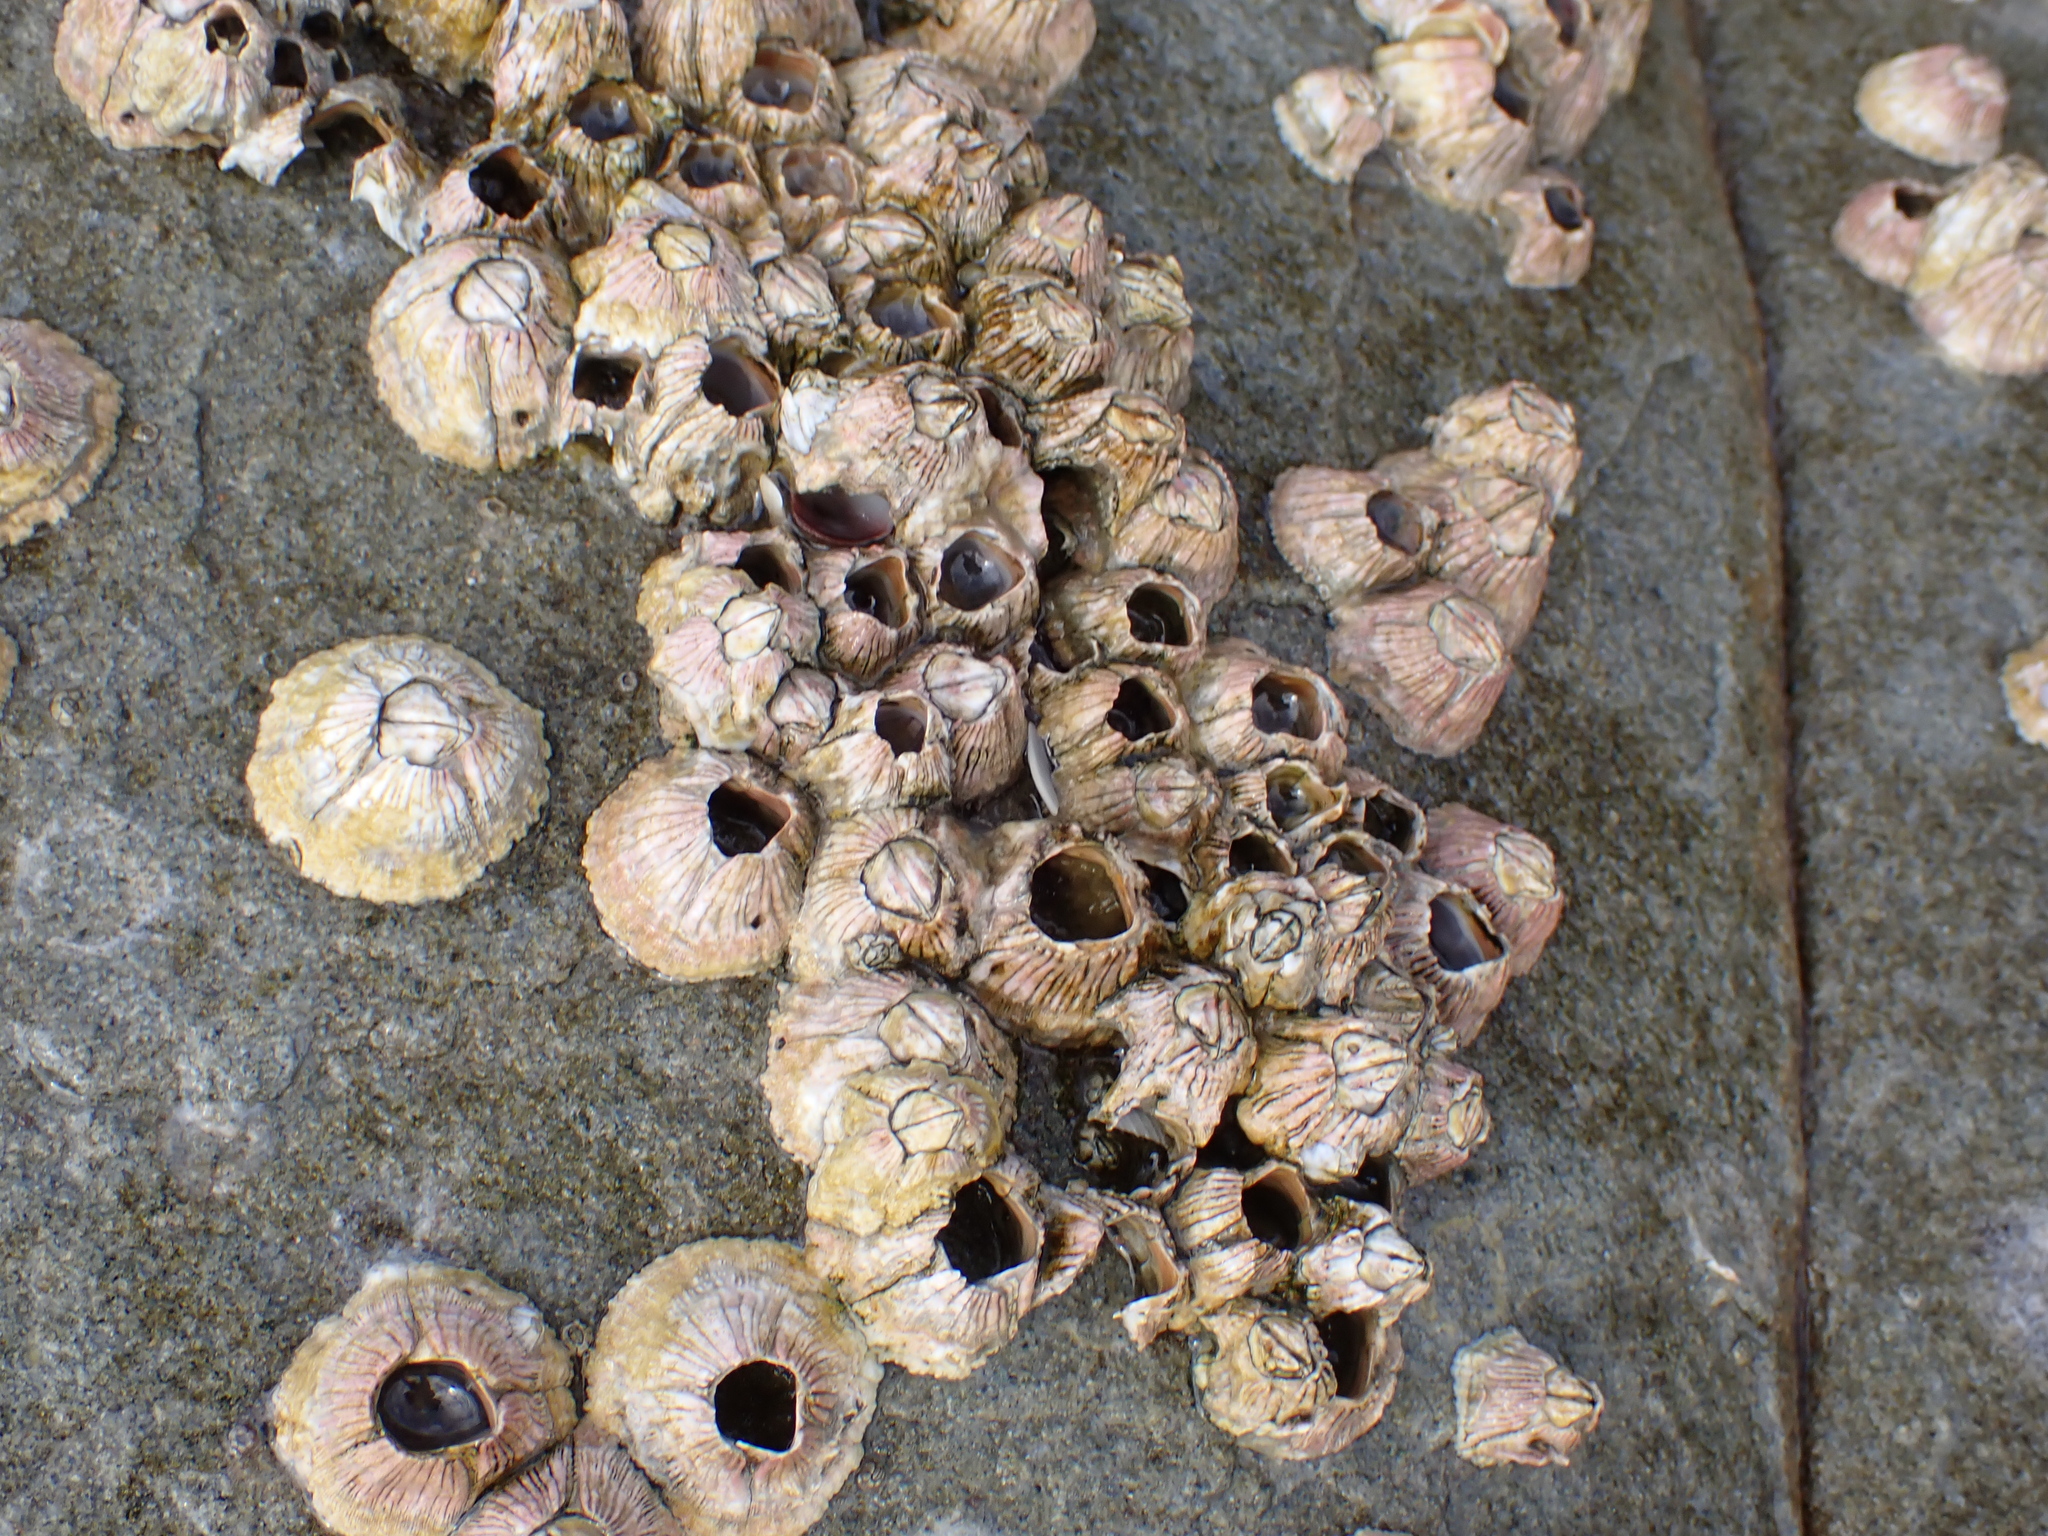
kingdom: Animalia
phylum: Arthropoda
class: Maxillopoda
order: Sessilia
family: Tetraclitidae
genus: Tesseropora
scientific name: Tesseropora rosea
